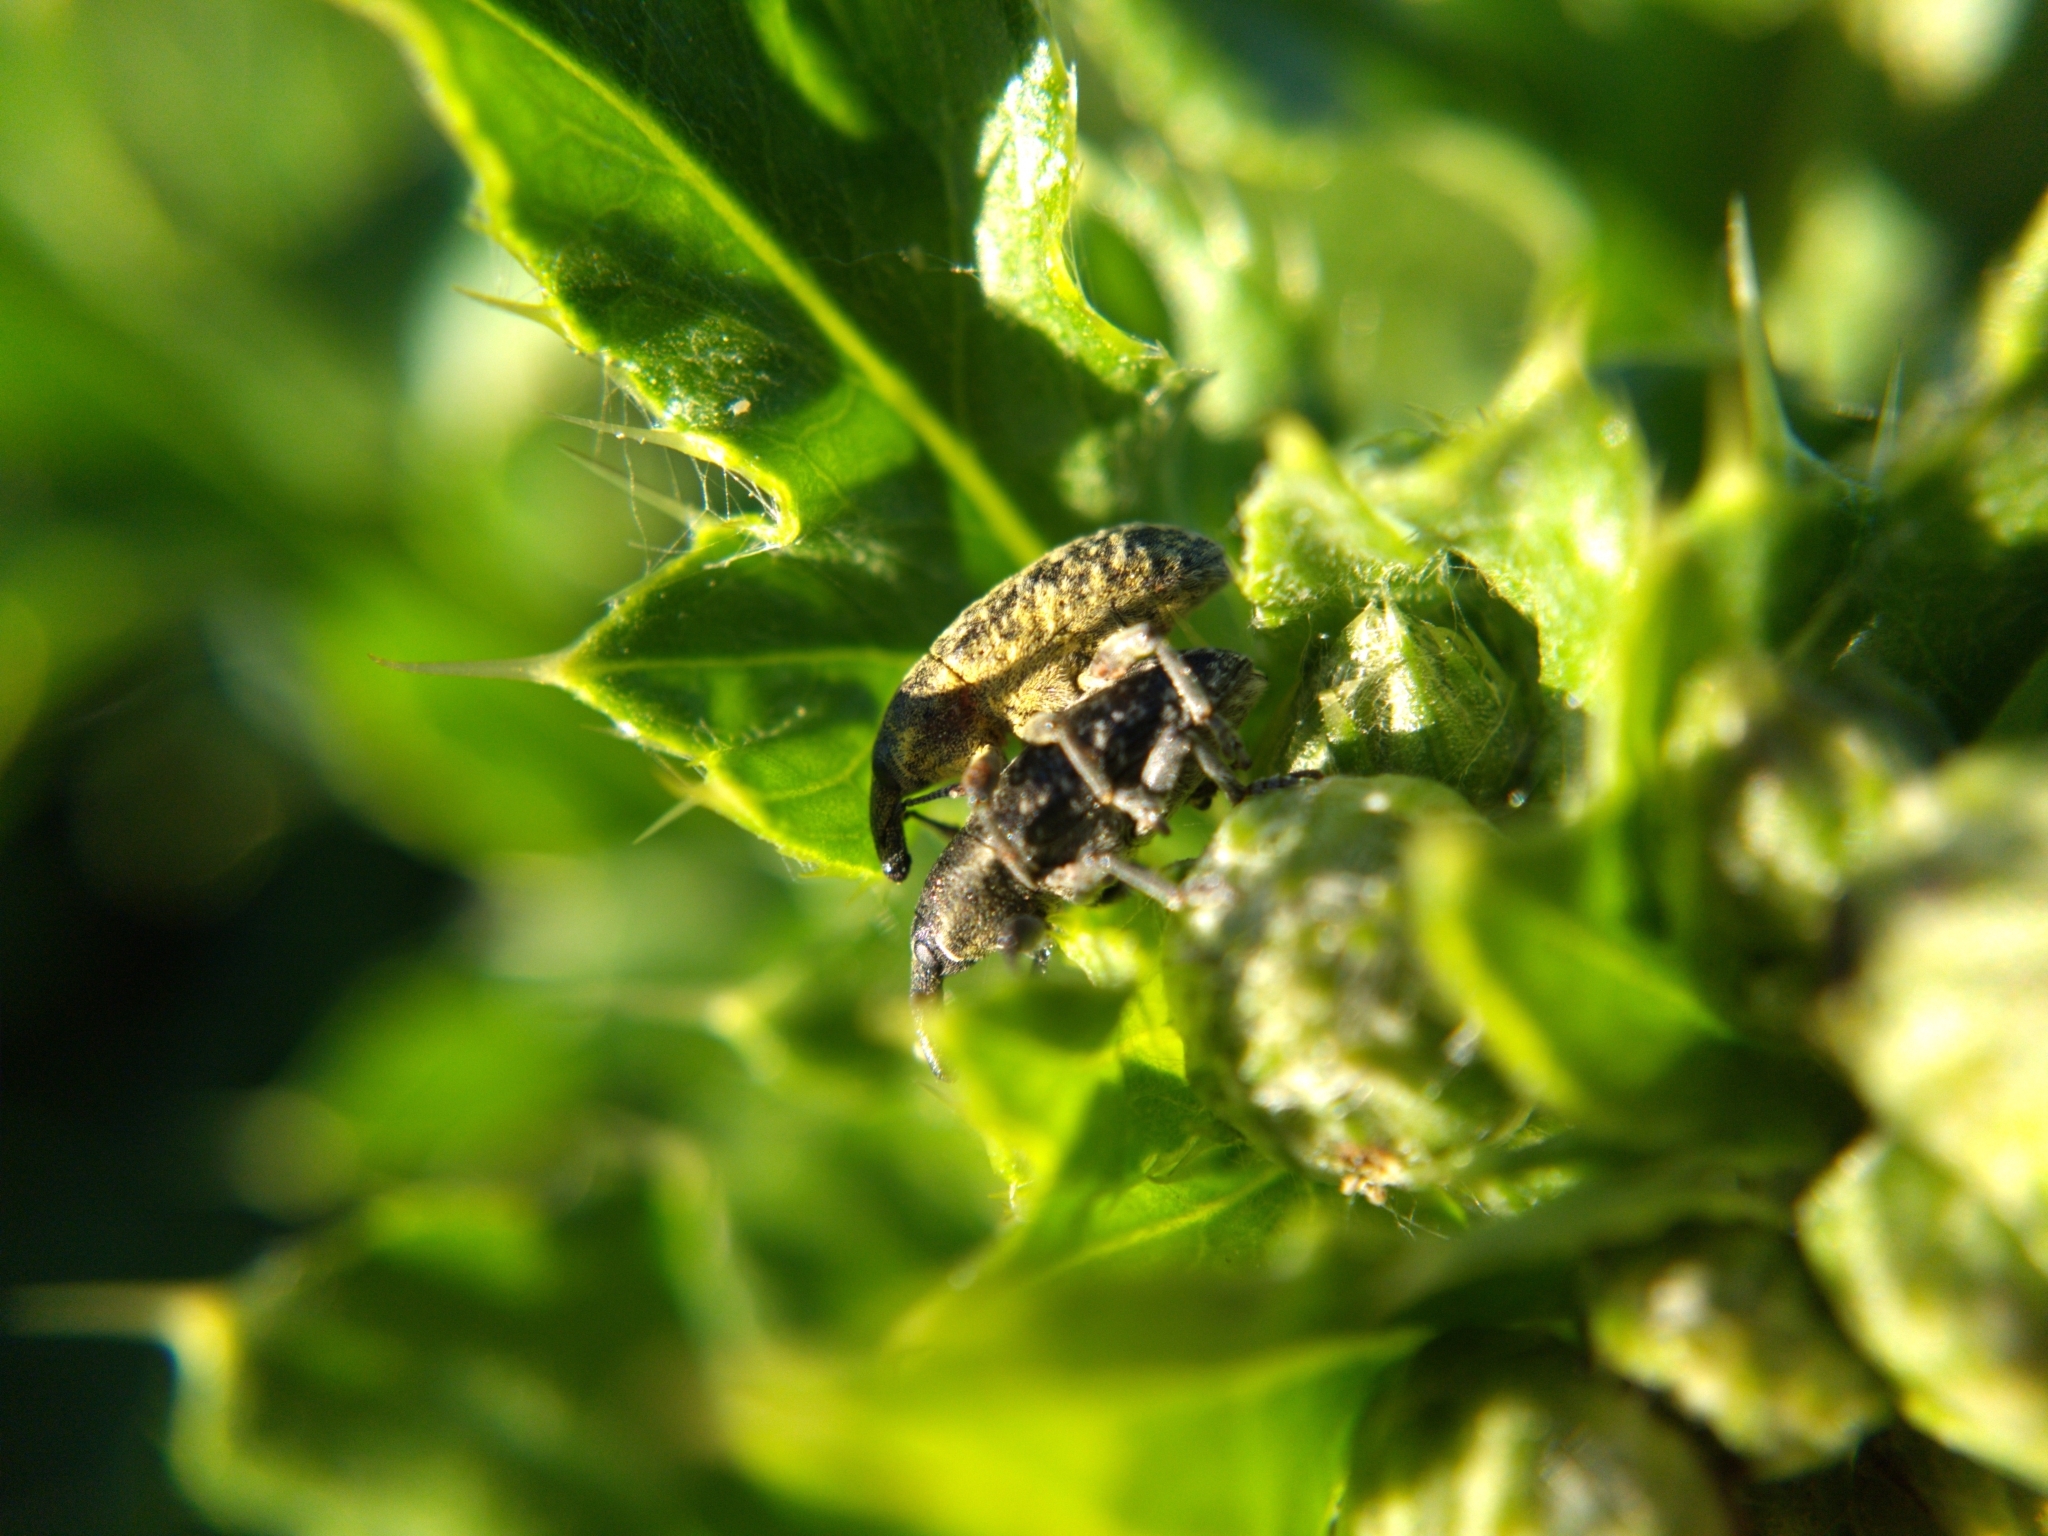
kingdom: Animalia
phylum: Arthropoda
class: Insecta
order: Coleoptera
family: Curculionidae
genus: Larinus
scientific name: Larinus carlinae
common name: Weevil
